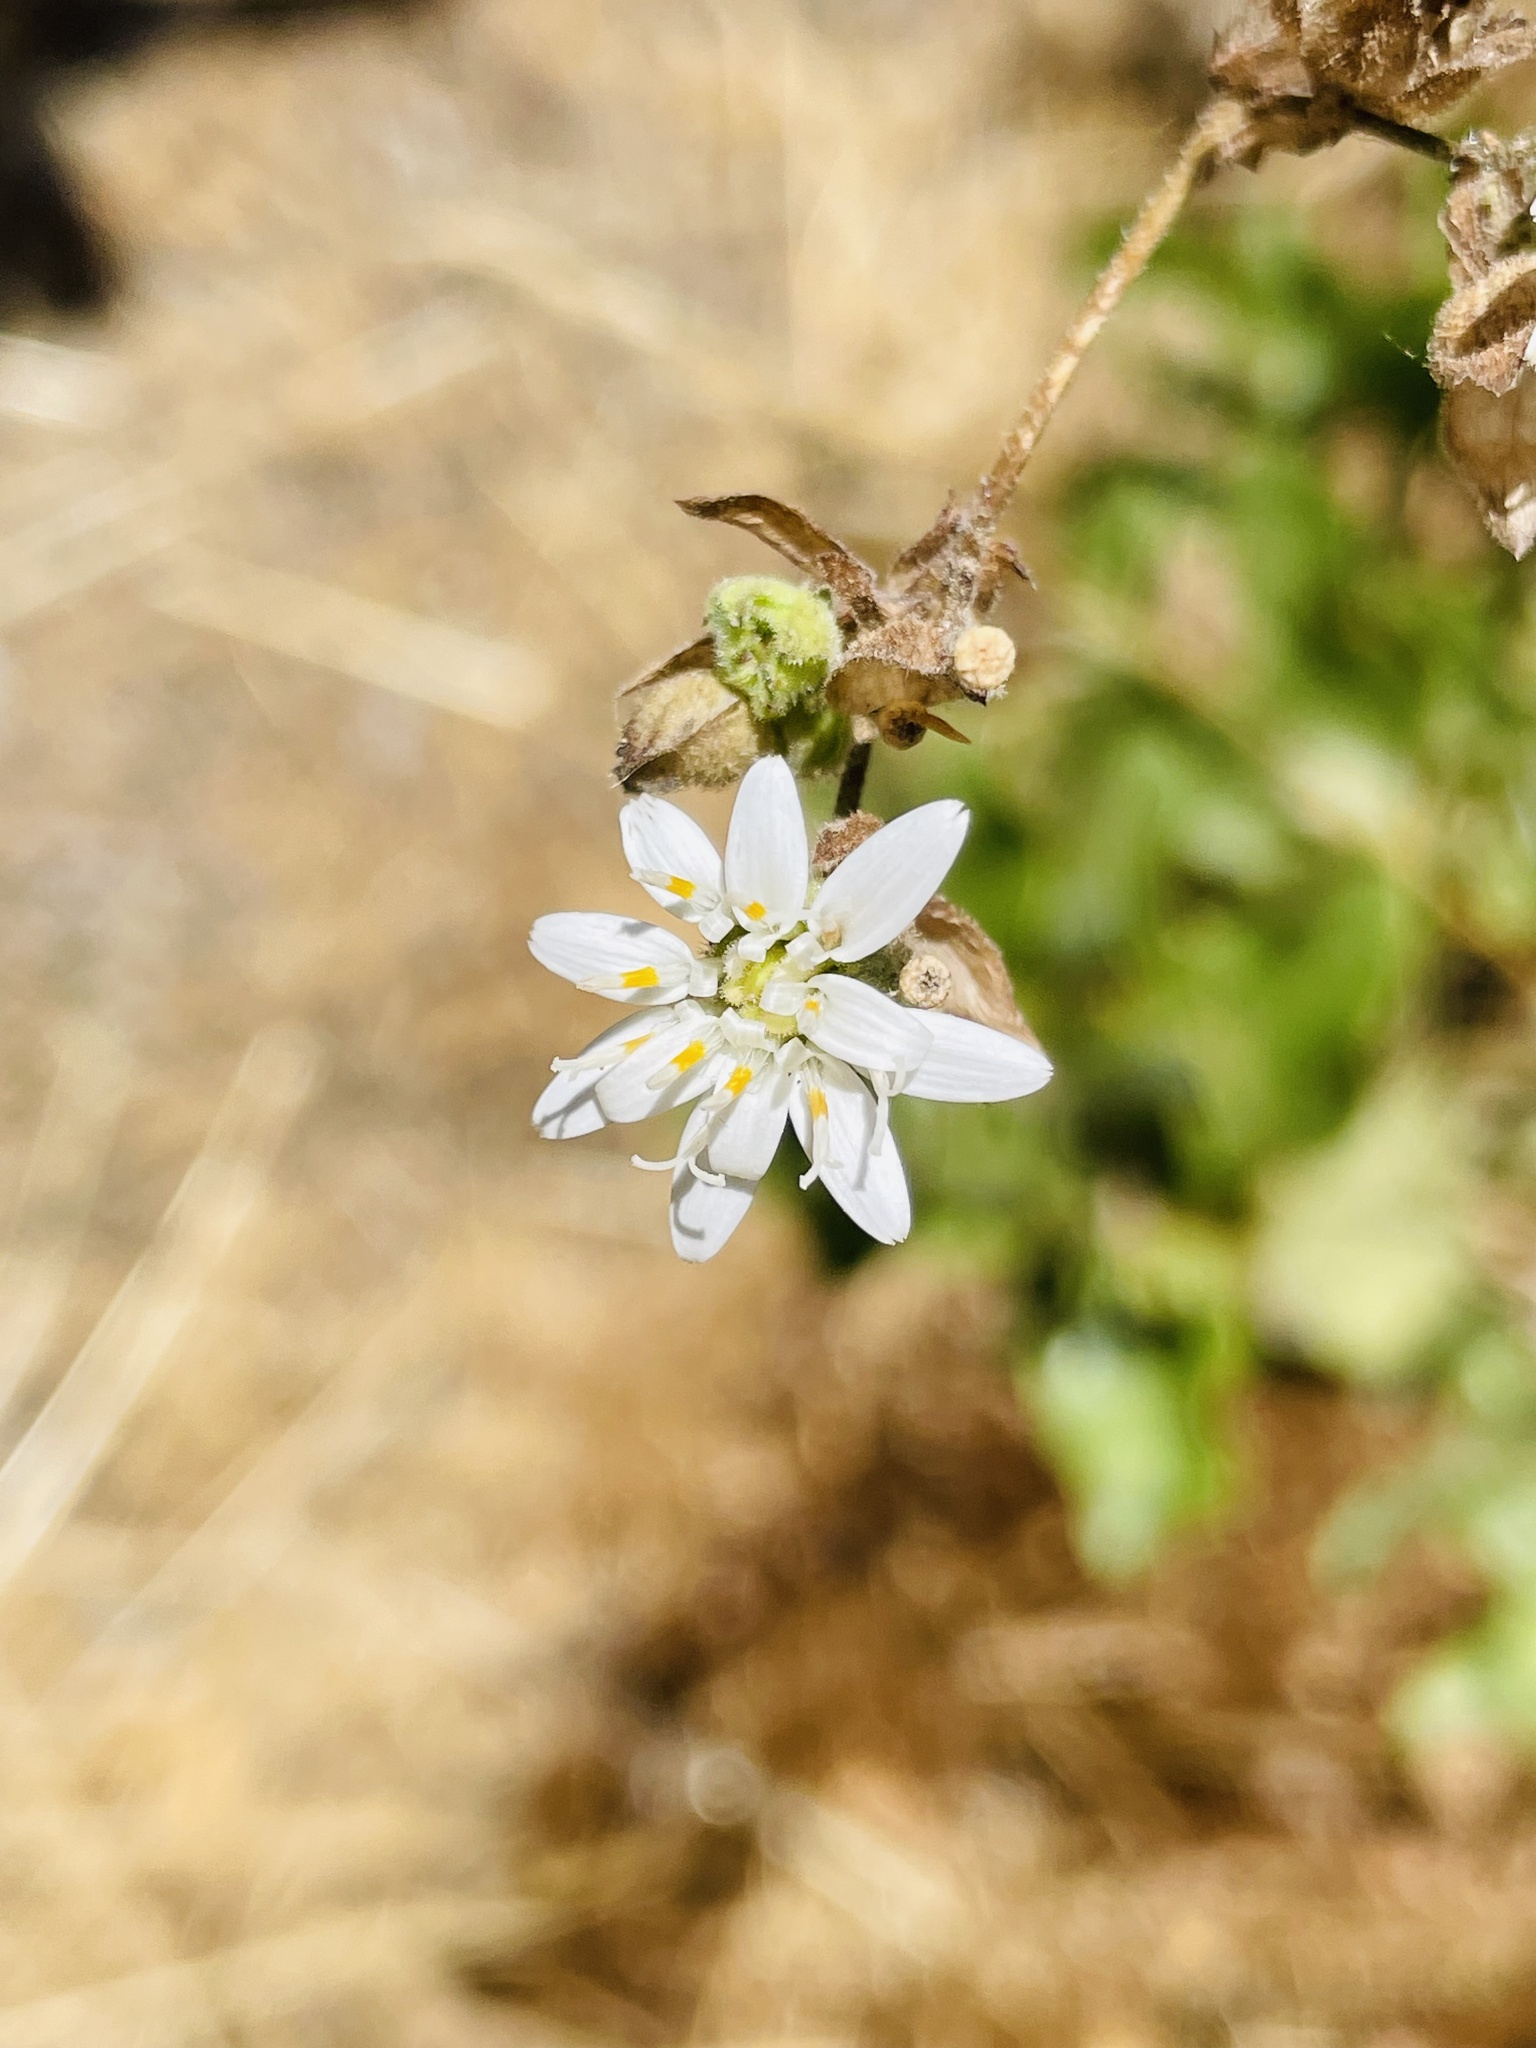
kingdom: Plantae
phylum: Tracheophyta
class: Magnoliopsida
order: Asterales
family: Asteraceae
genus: Moscharia
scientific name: Moscharia pinnatifida
